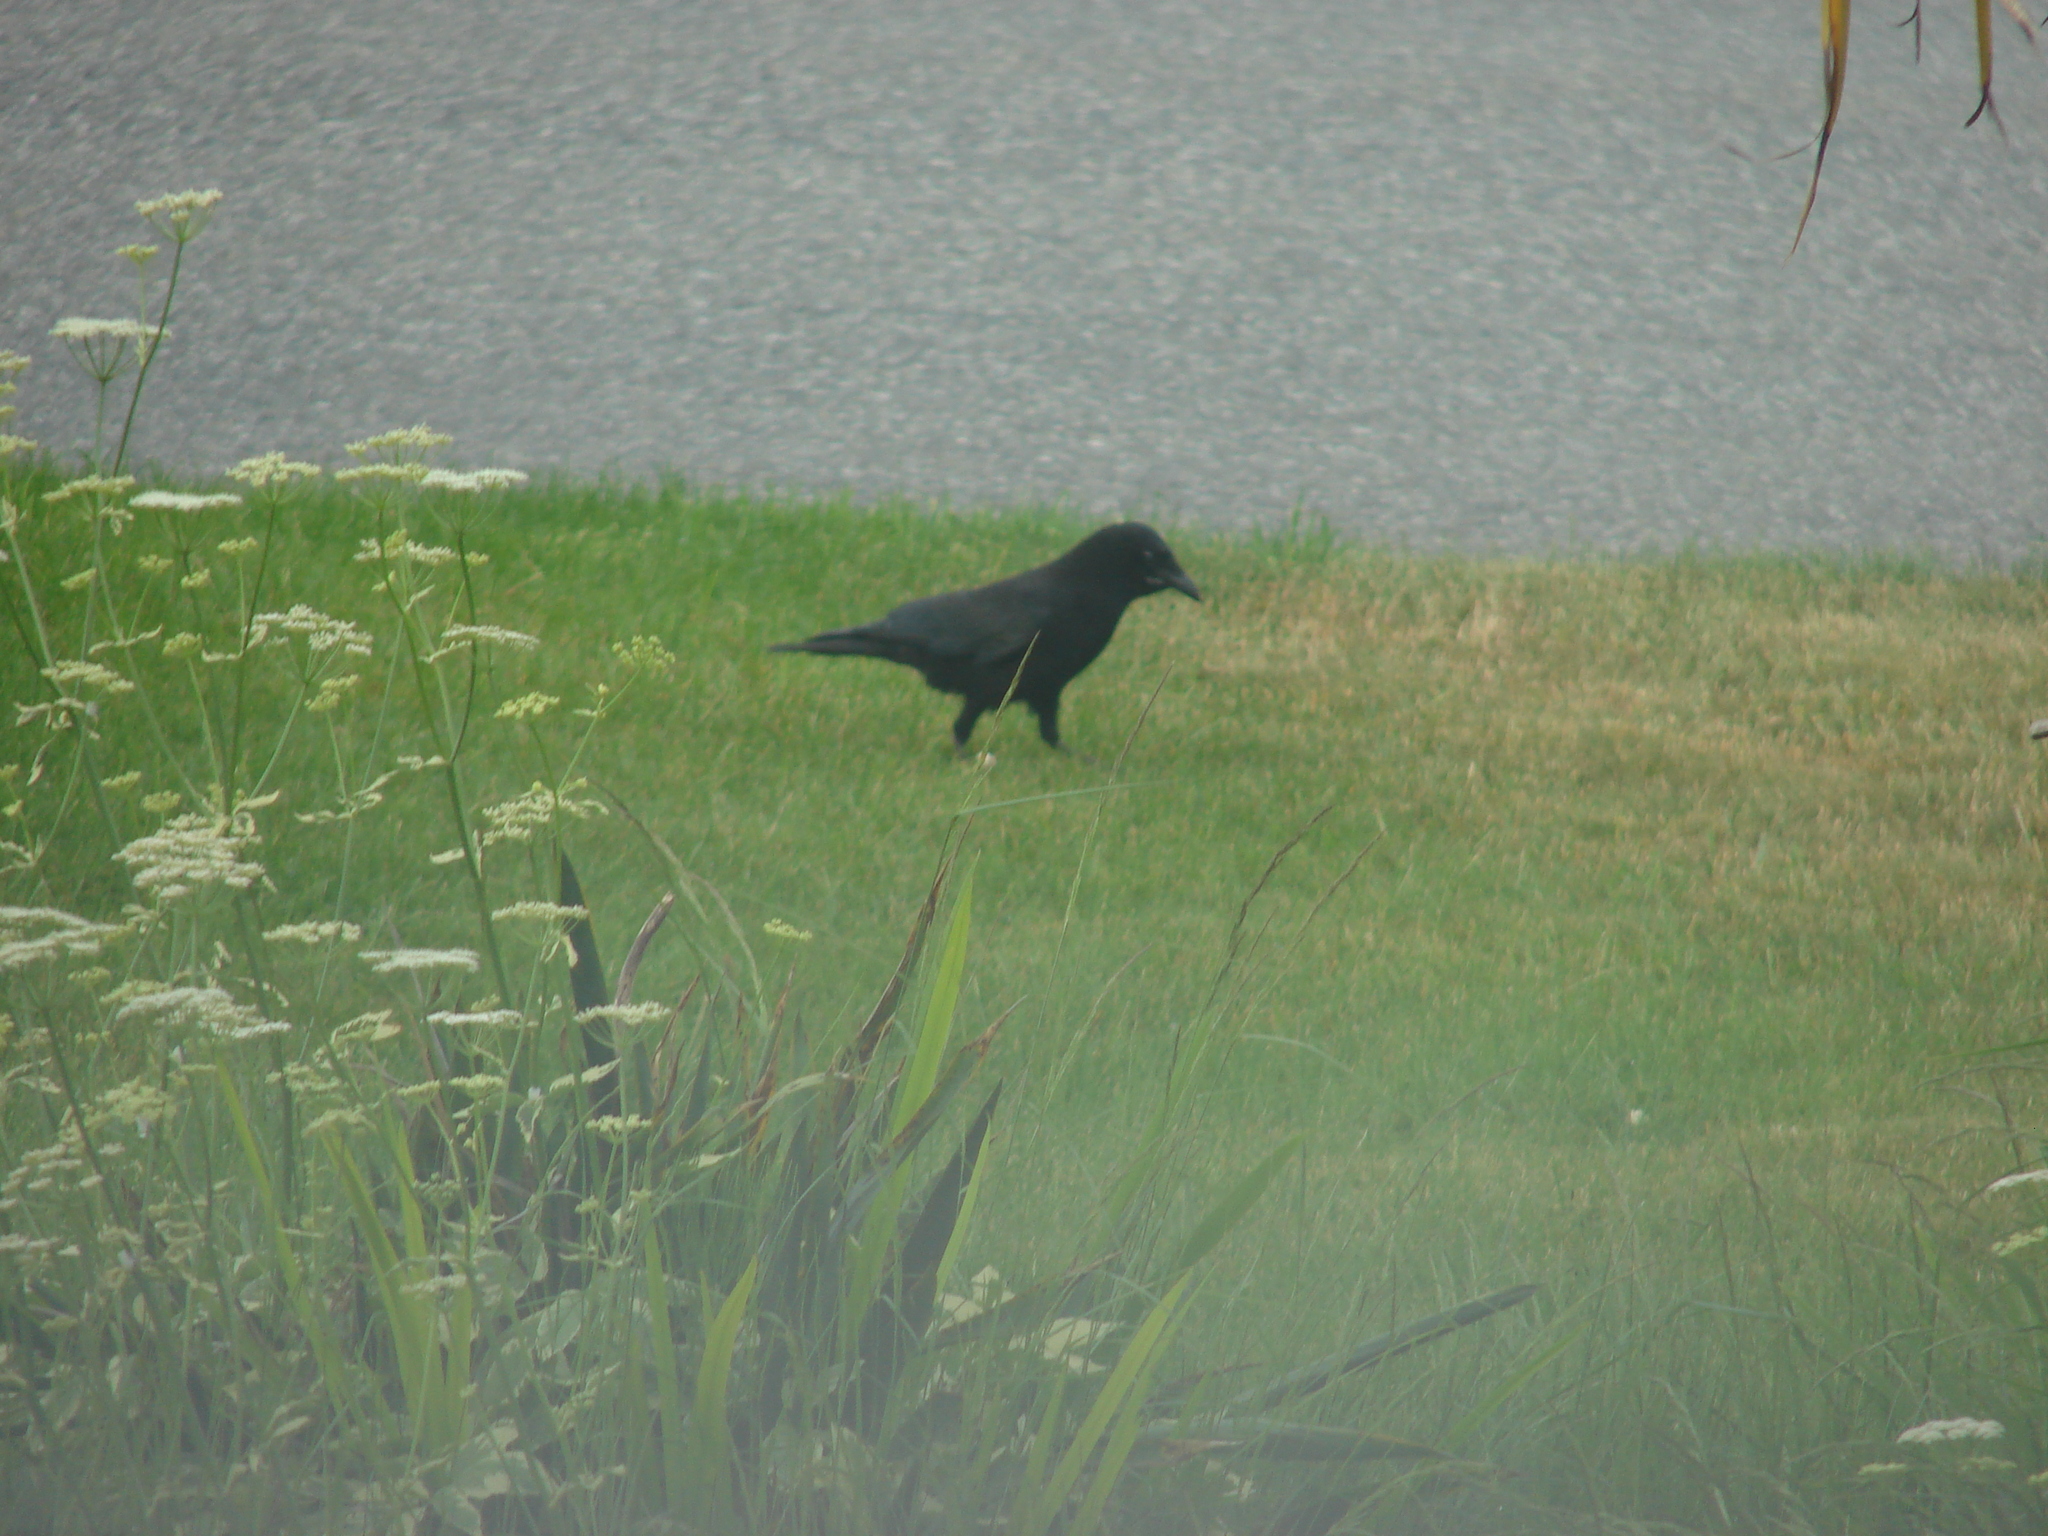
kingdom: Animalia
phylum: Chordata
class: Aves
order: Passeriformes
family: Corvidae
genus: Corvus
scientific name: Corvus brachyrhynchos
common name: American crow
